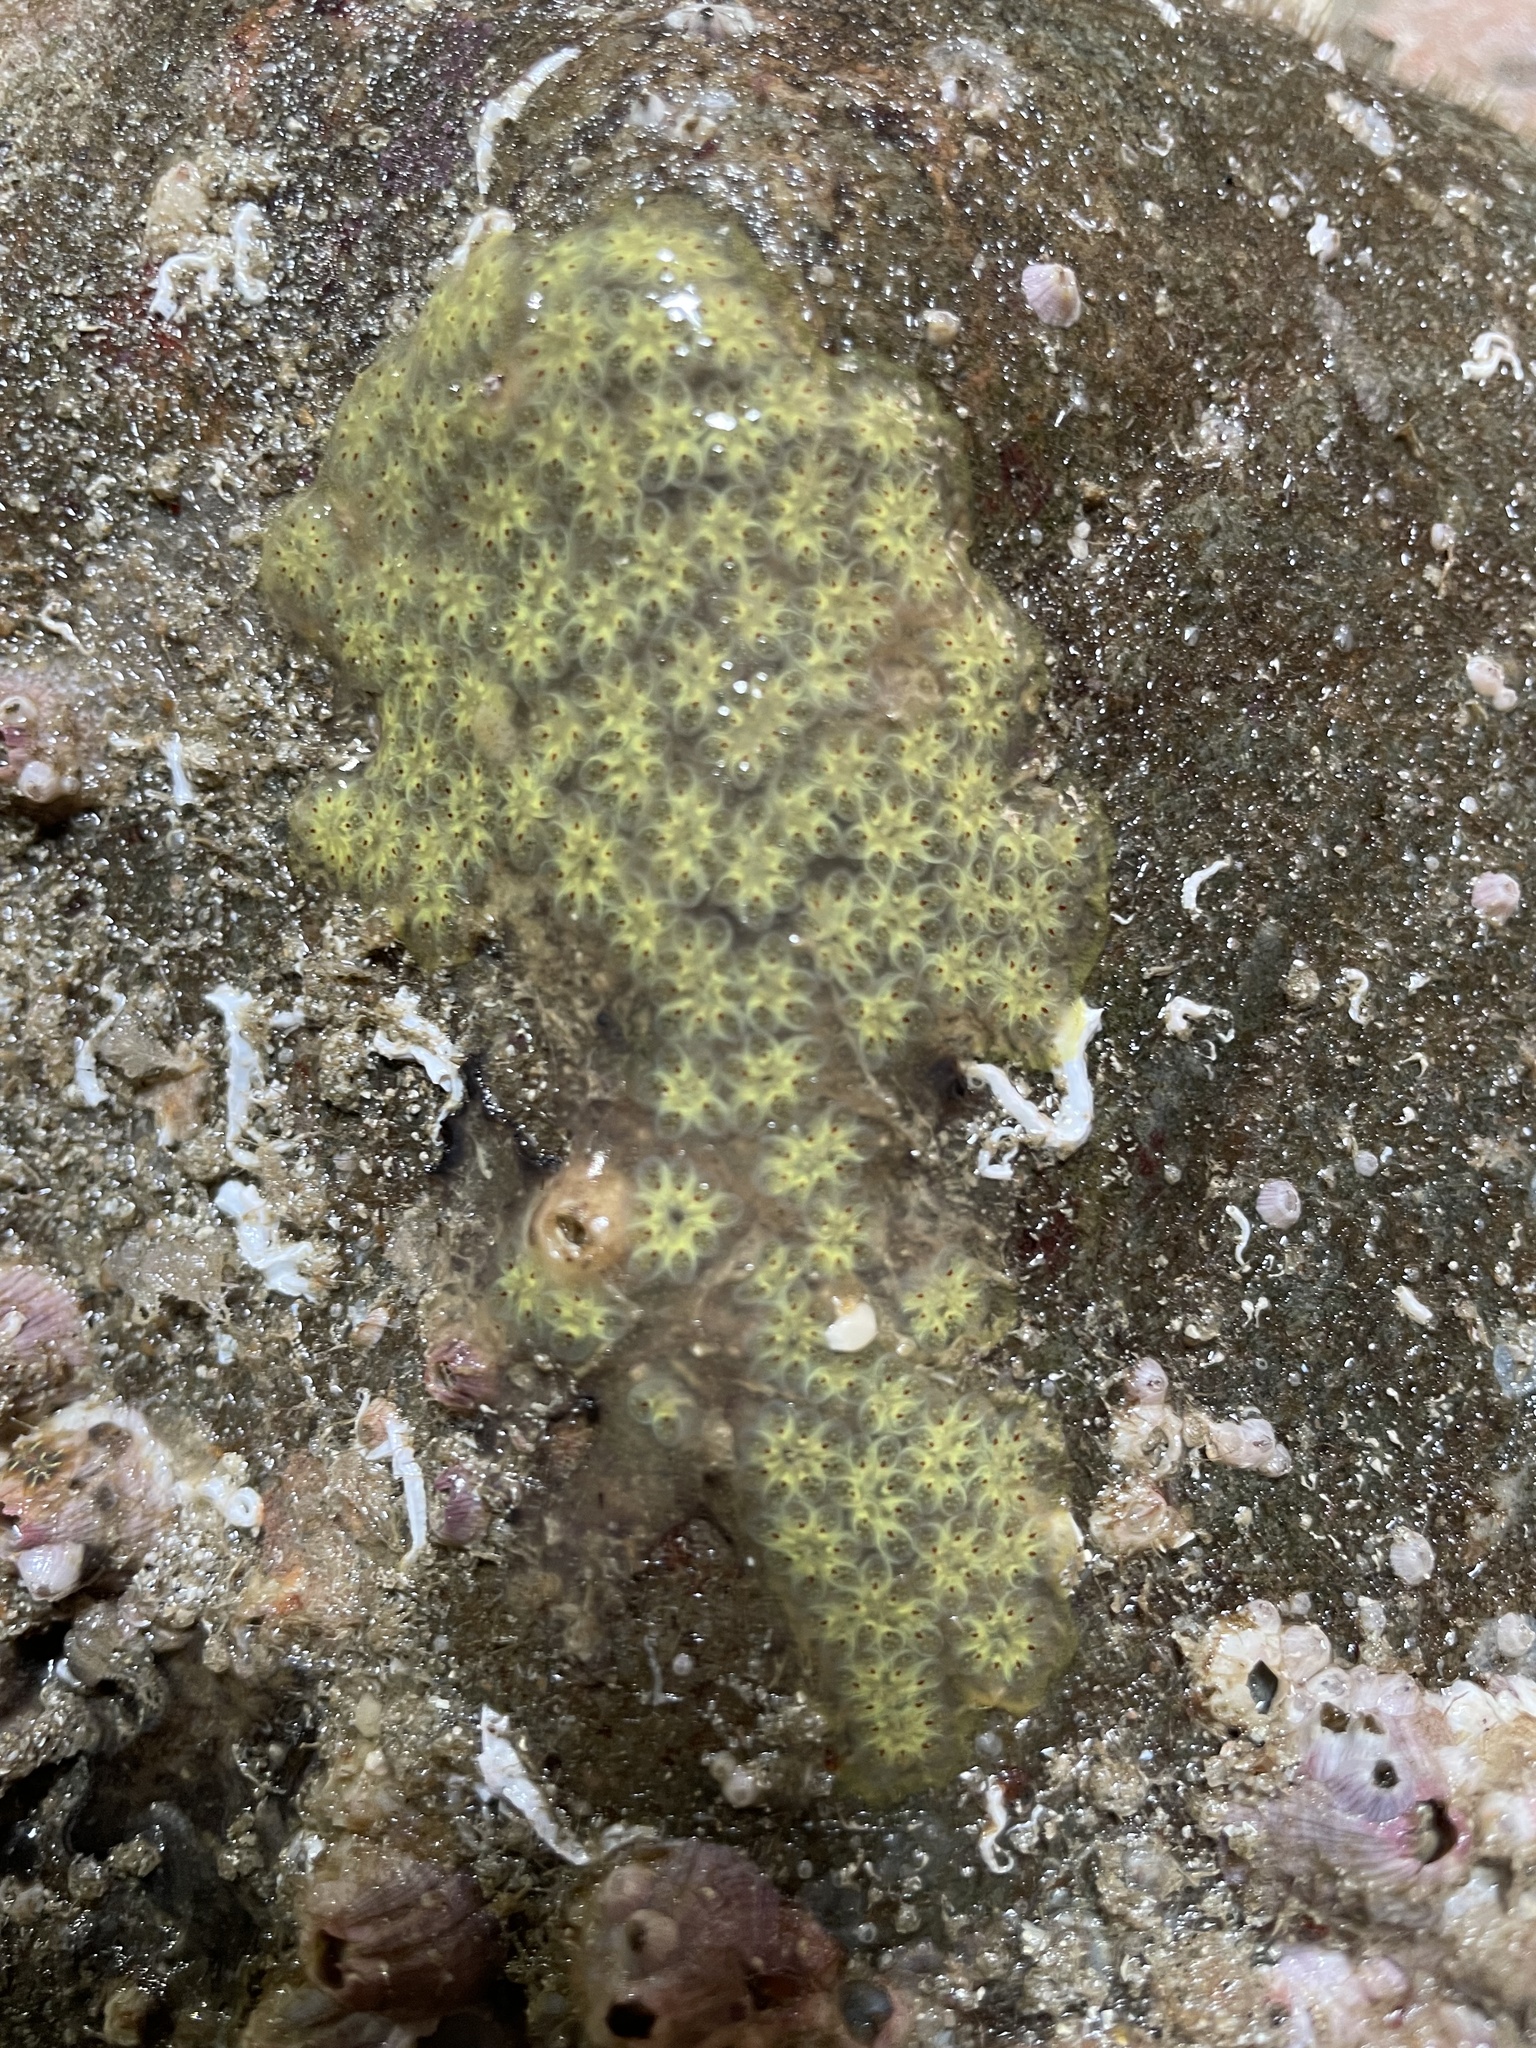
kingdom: Animalia
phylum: Chordata
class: Ascidiacea
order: Stolidobranchia
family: Styelidae
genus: Botryllus
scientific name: Botryllus schlosseri
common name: Golden star tunicate
